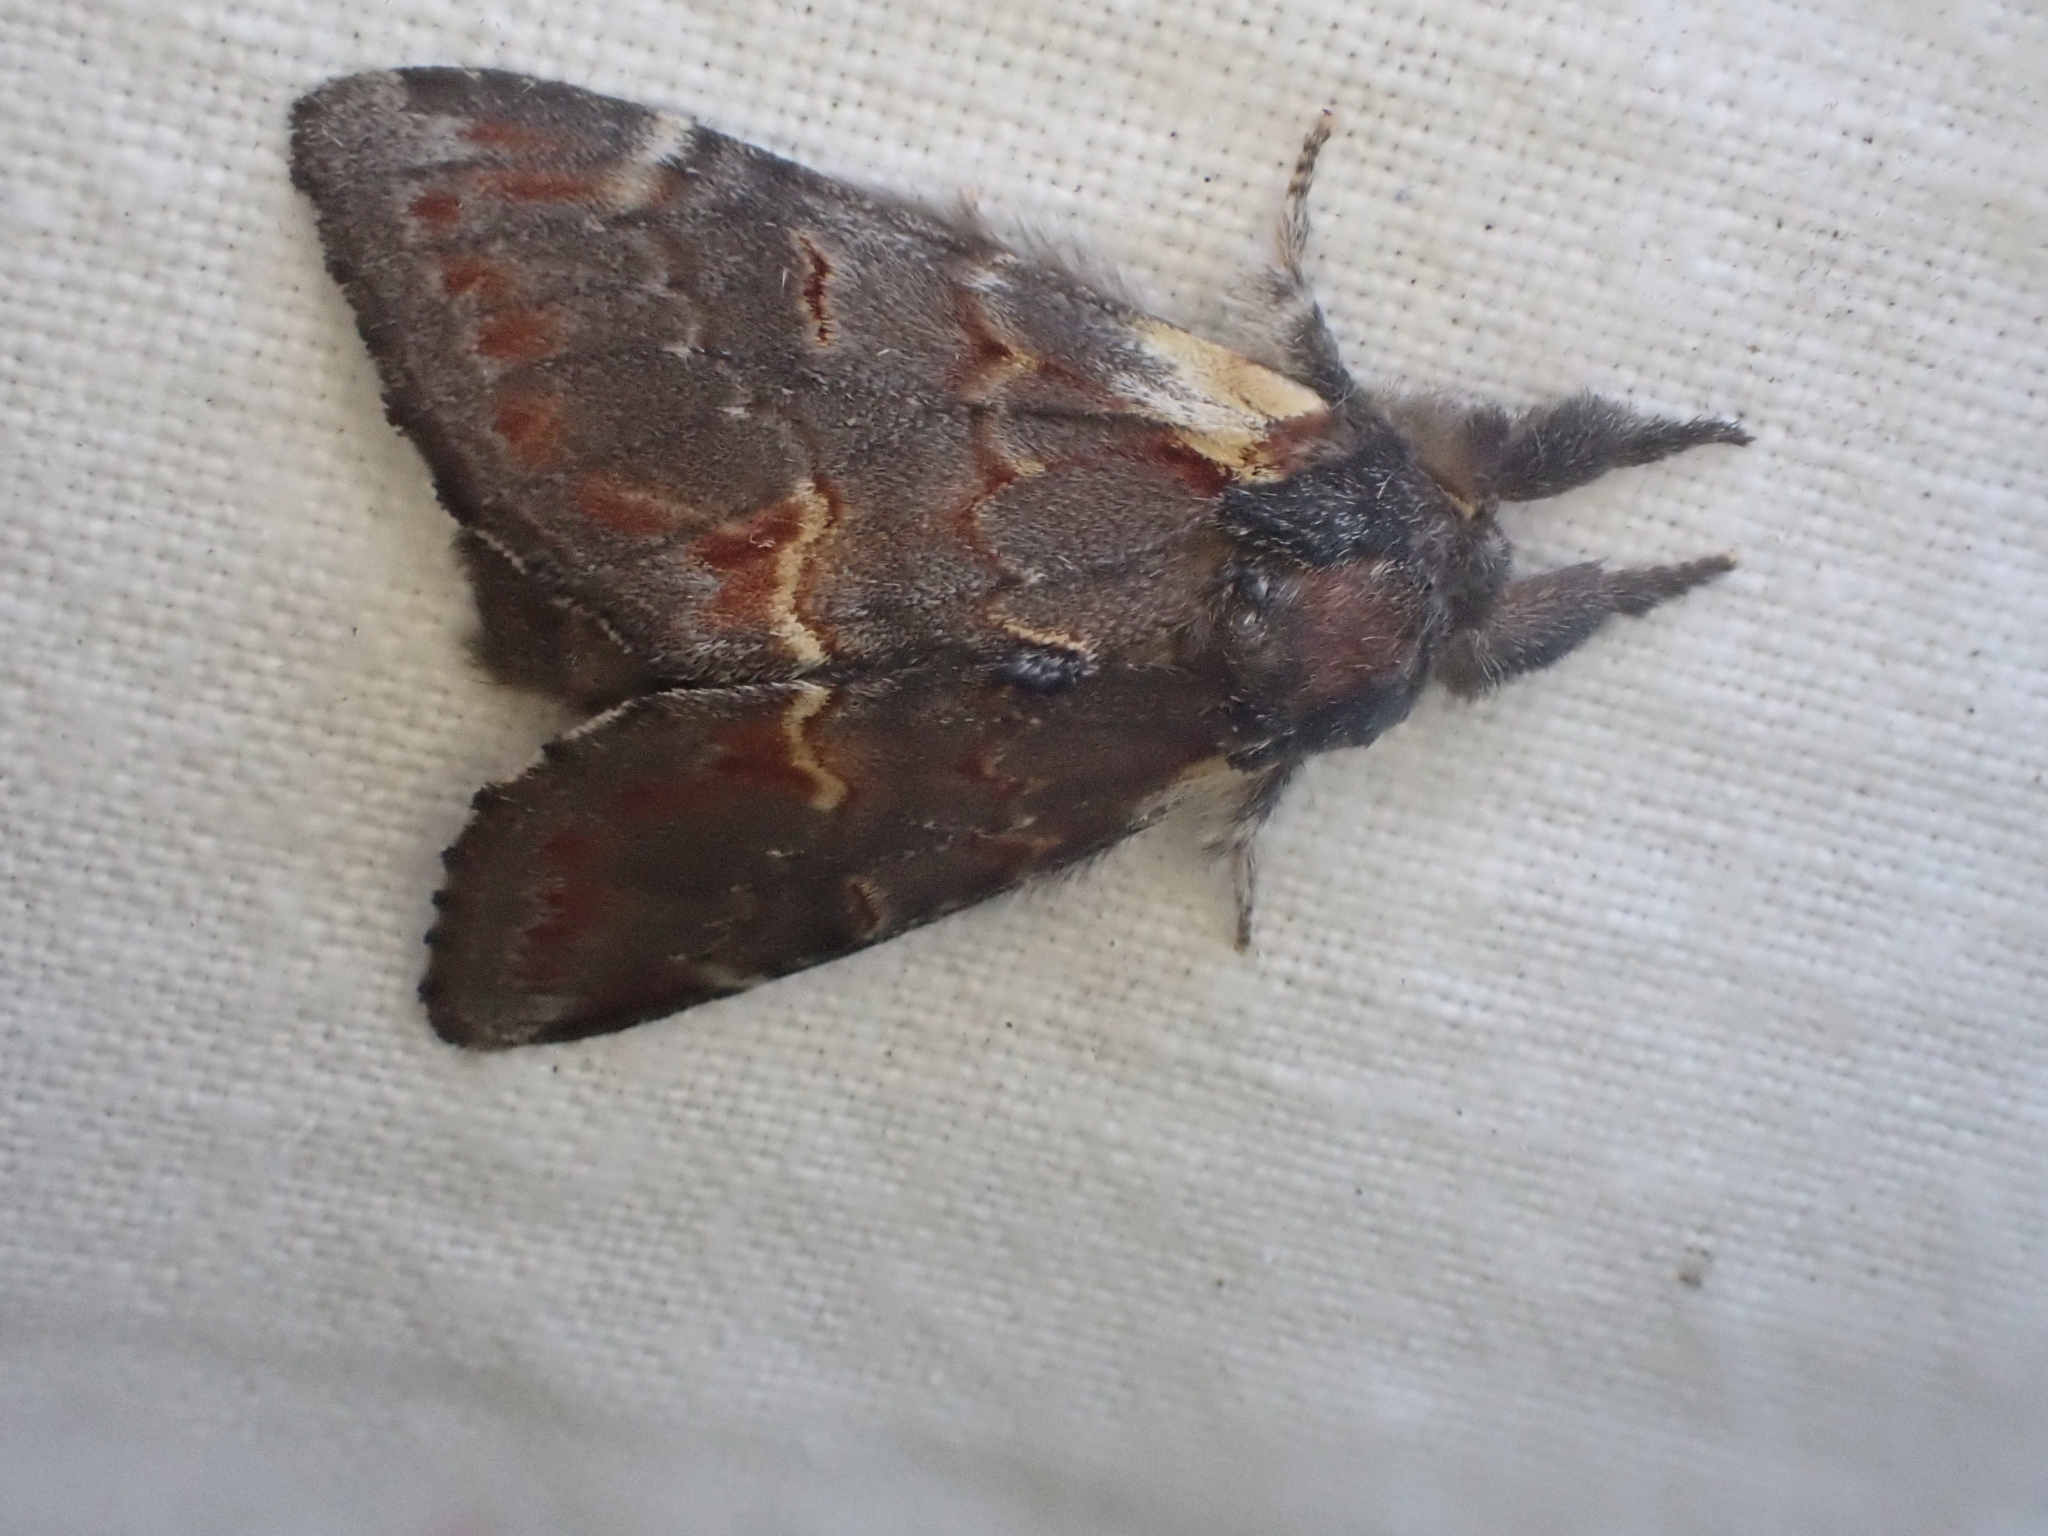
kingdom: Animalia
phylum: Arthropoda
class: Insecta
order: Lepidoptera
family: Notodontidae
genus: Notodonta
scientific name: Notodonta dromedarius
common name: Iron prominent
